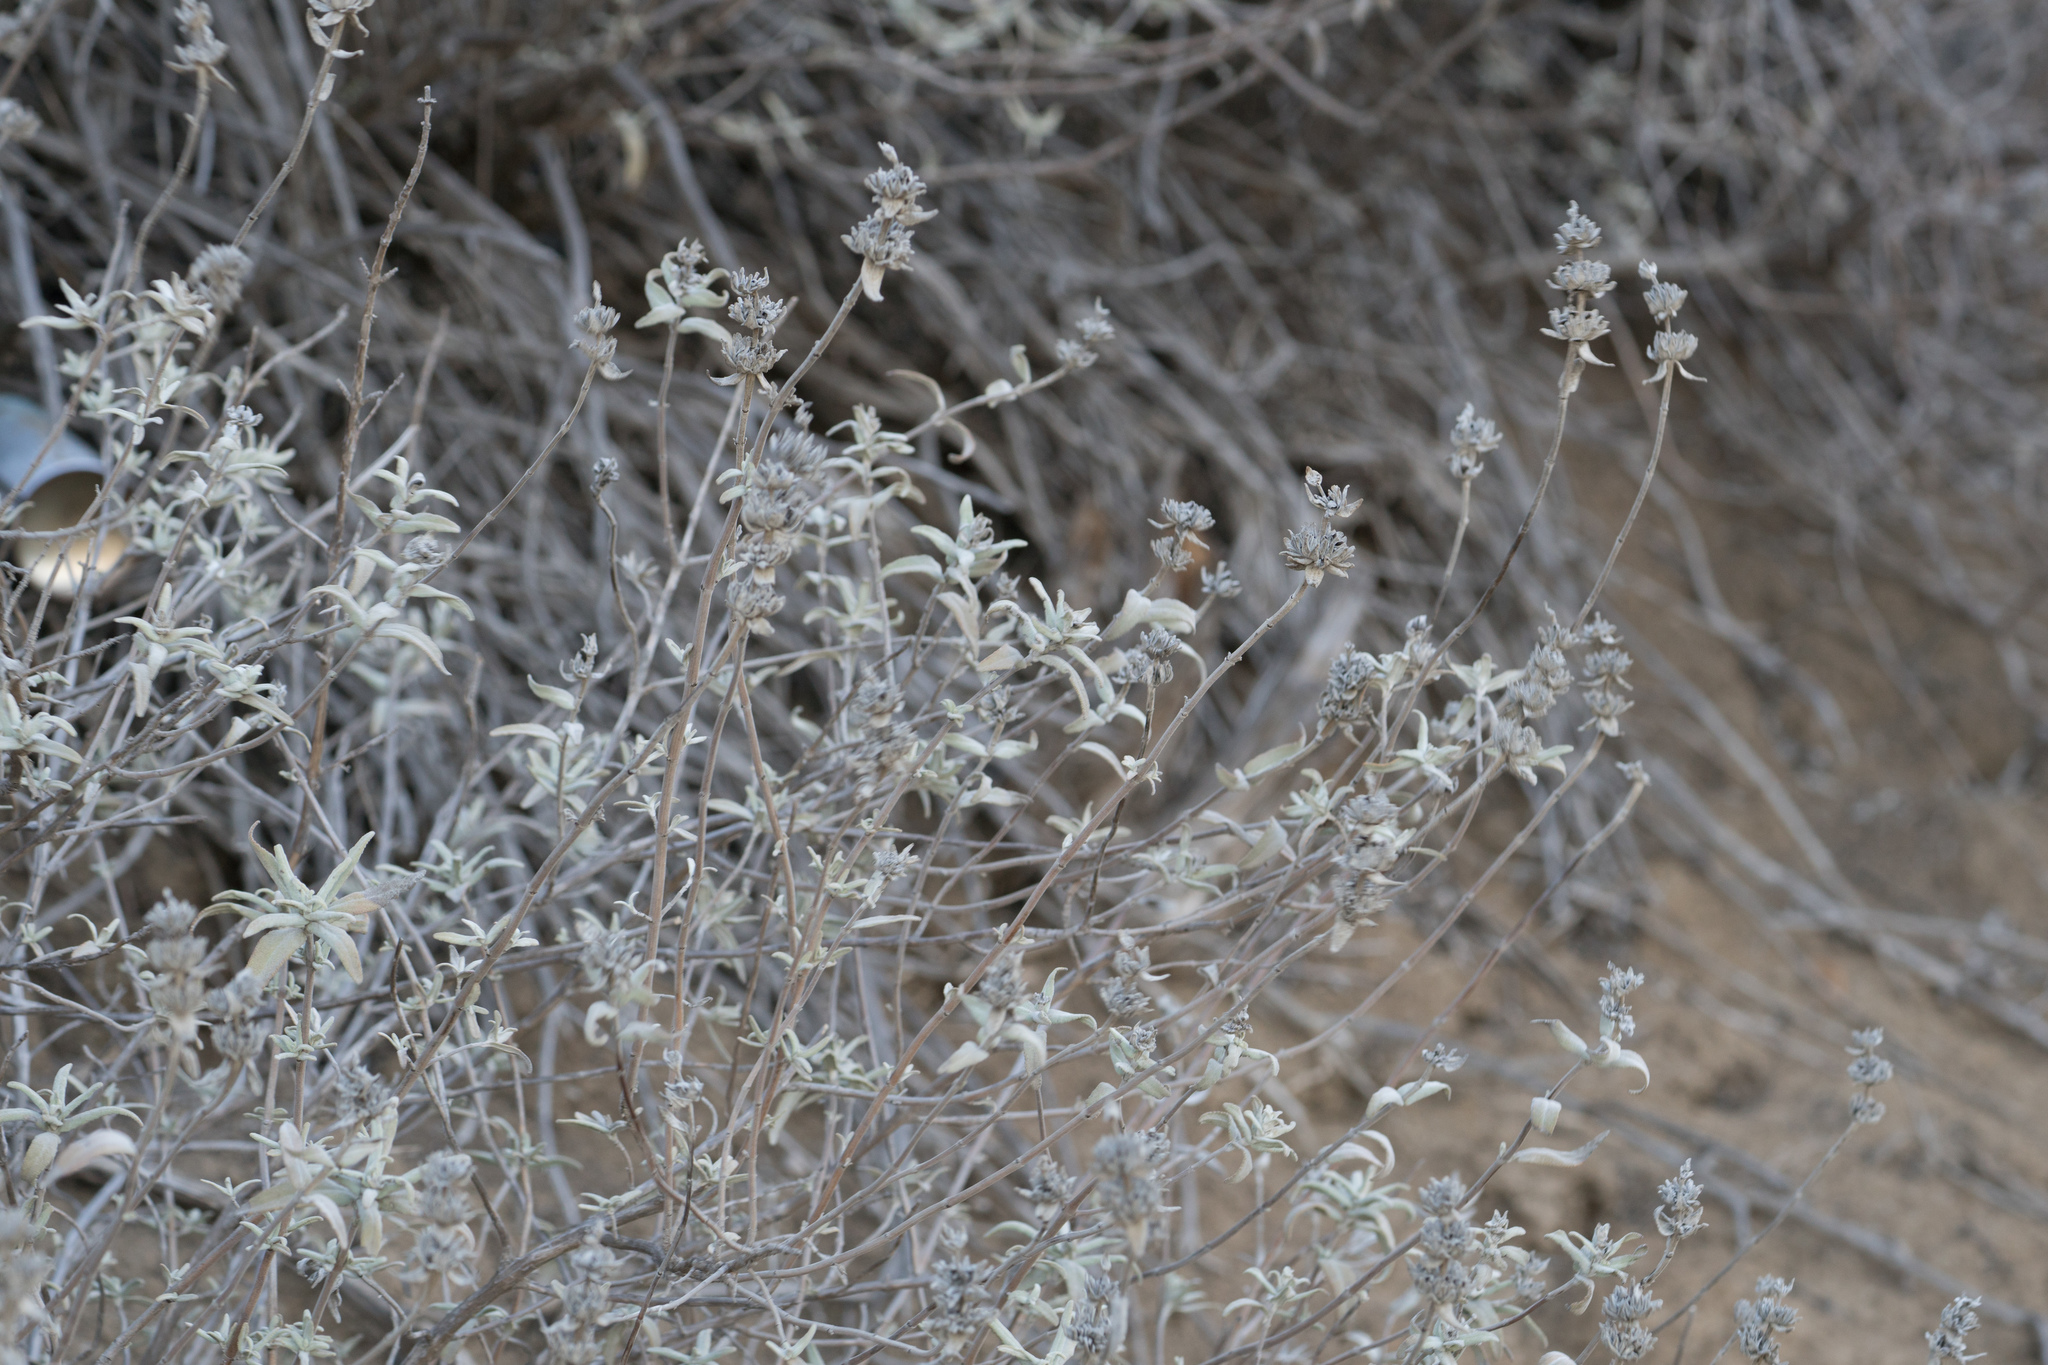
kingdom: Plantae
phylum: Tracheophyta
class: Magnoliopsida
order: Lamiales
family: Lamiaceae
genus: Salvia
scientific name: Salvia leucophylla
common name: Purple sage
